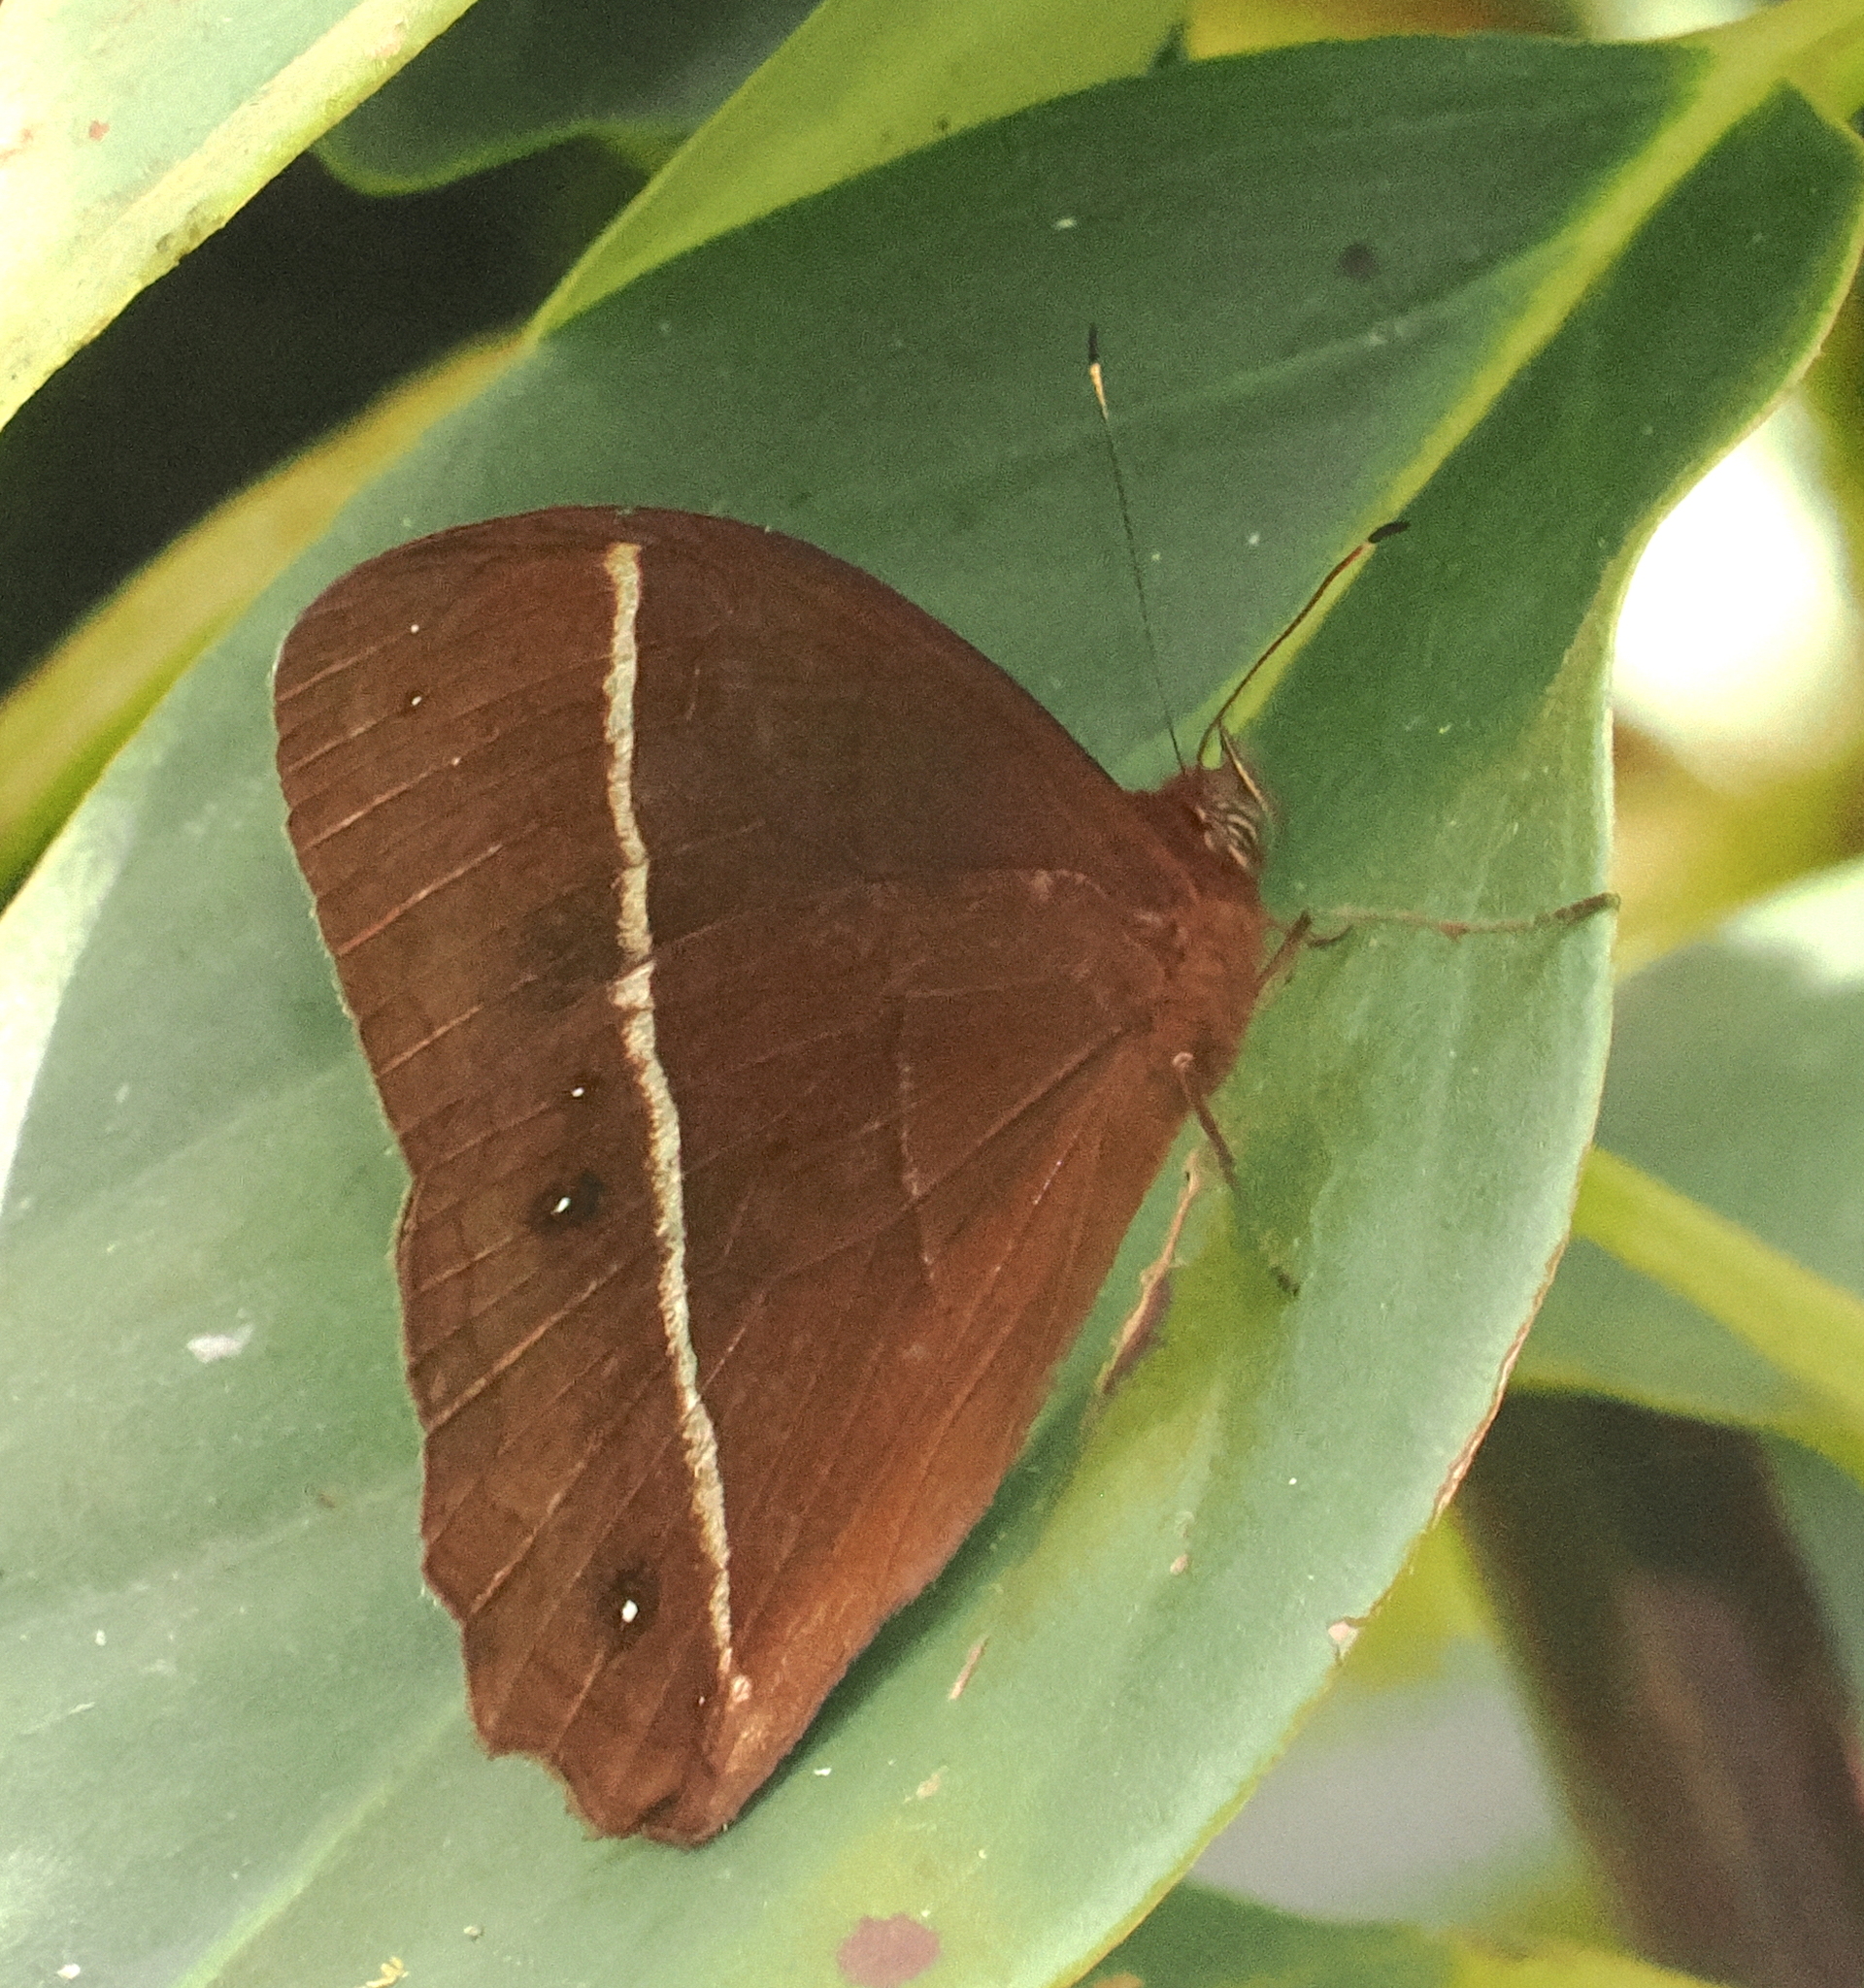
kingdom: Animalia
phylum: Arthropoda
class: Insecta
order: Lepidoptera
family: Nymphalidae
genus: Parataygetis
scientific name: Parataygetis lineata
